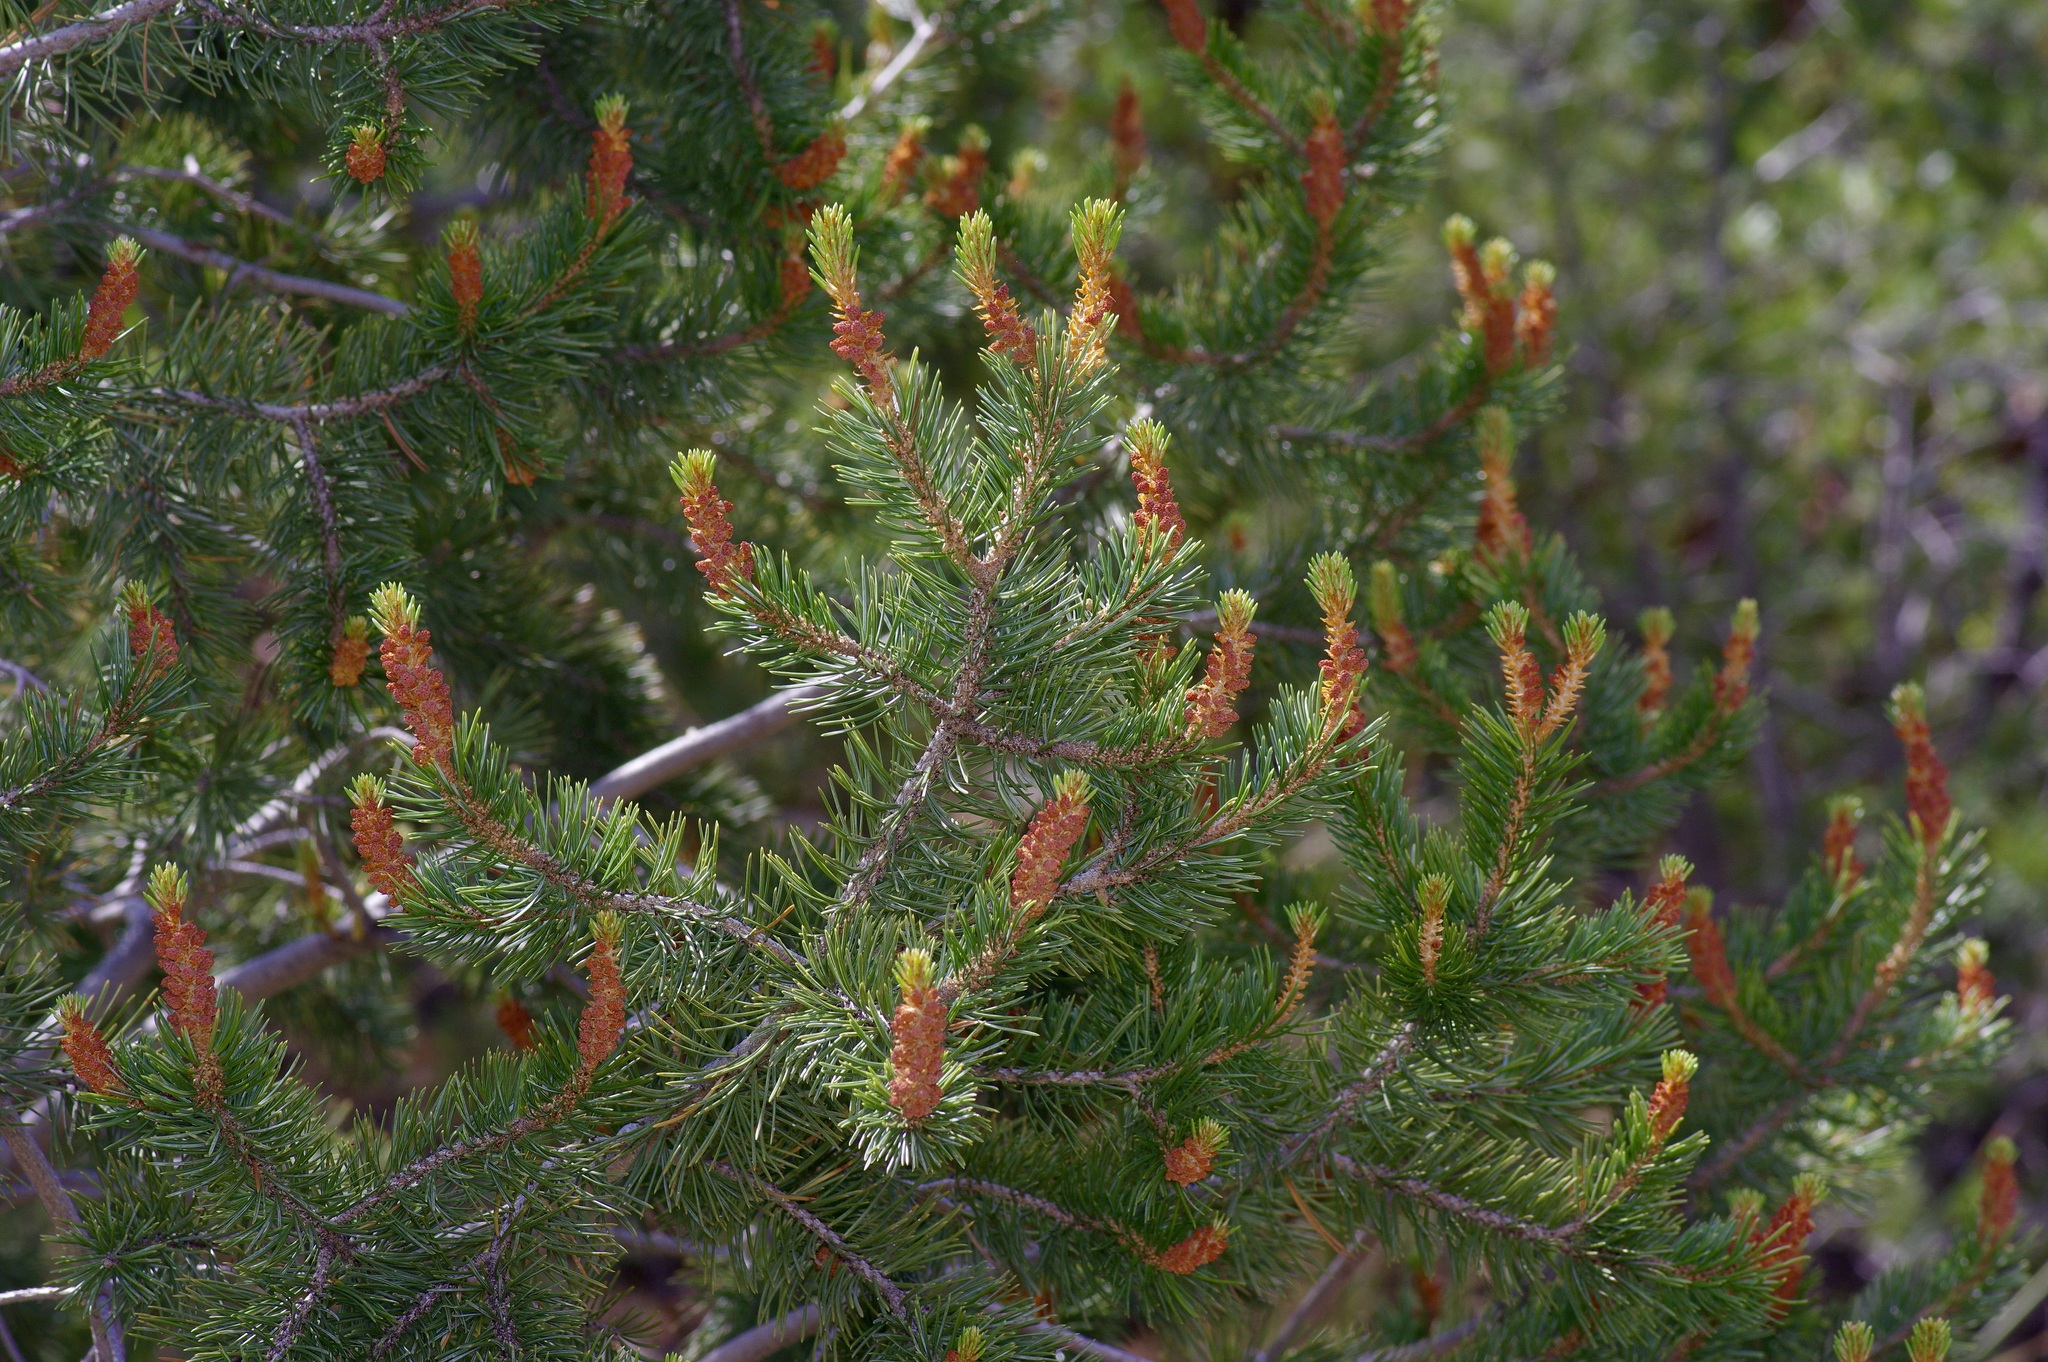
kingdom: Plantae
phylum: Tracheophyta
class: Pinopsida
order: Pinales
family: Pinaceae
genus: Pinus
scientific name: Pinus cembroides
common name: Mexican nut pine
